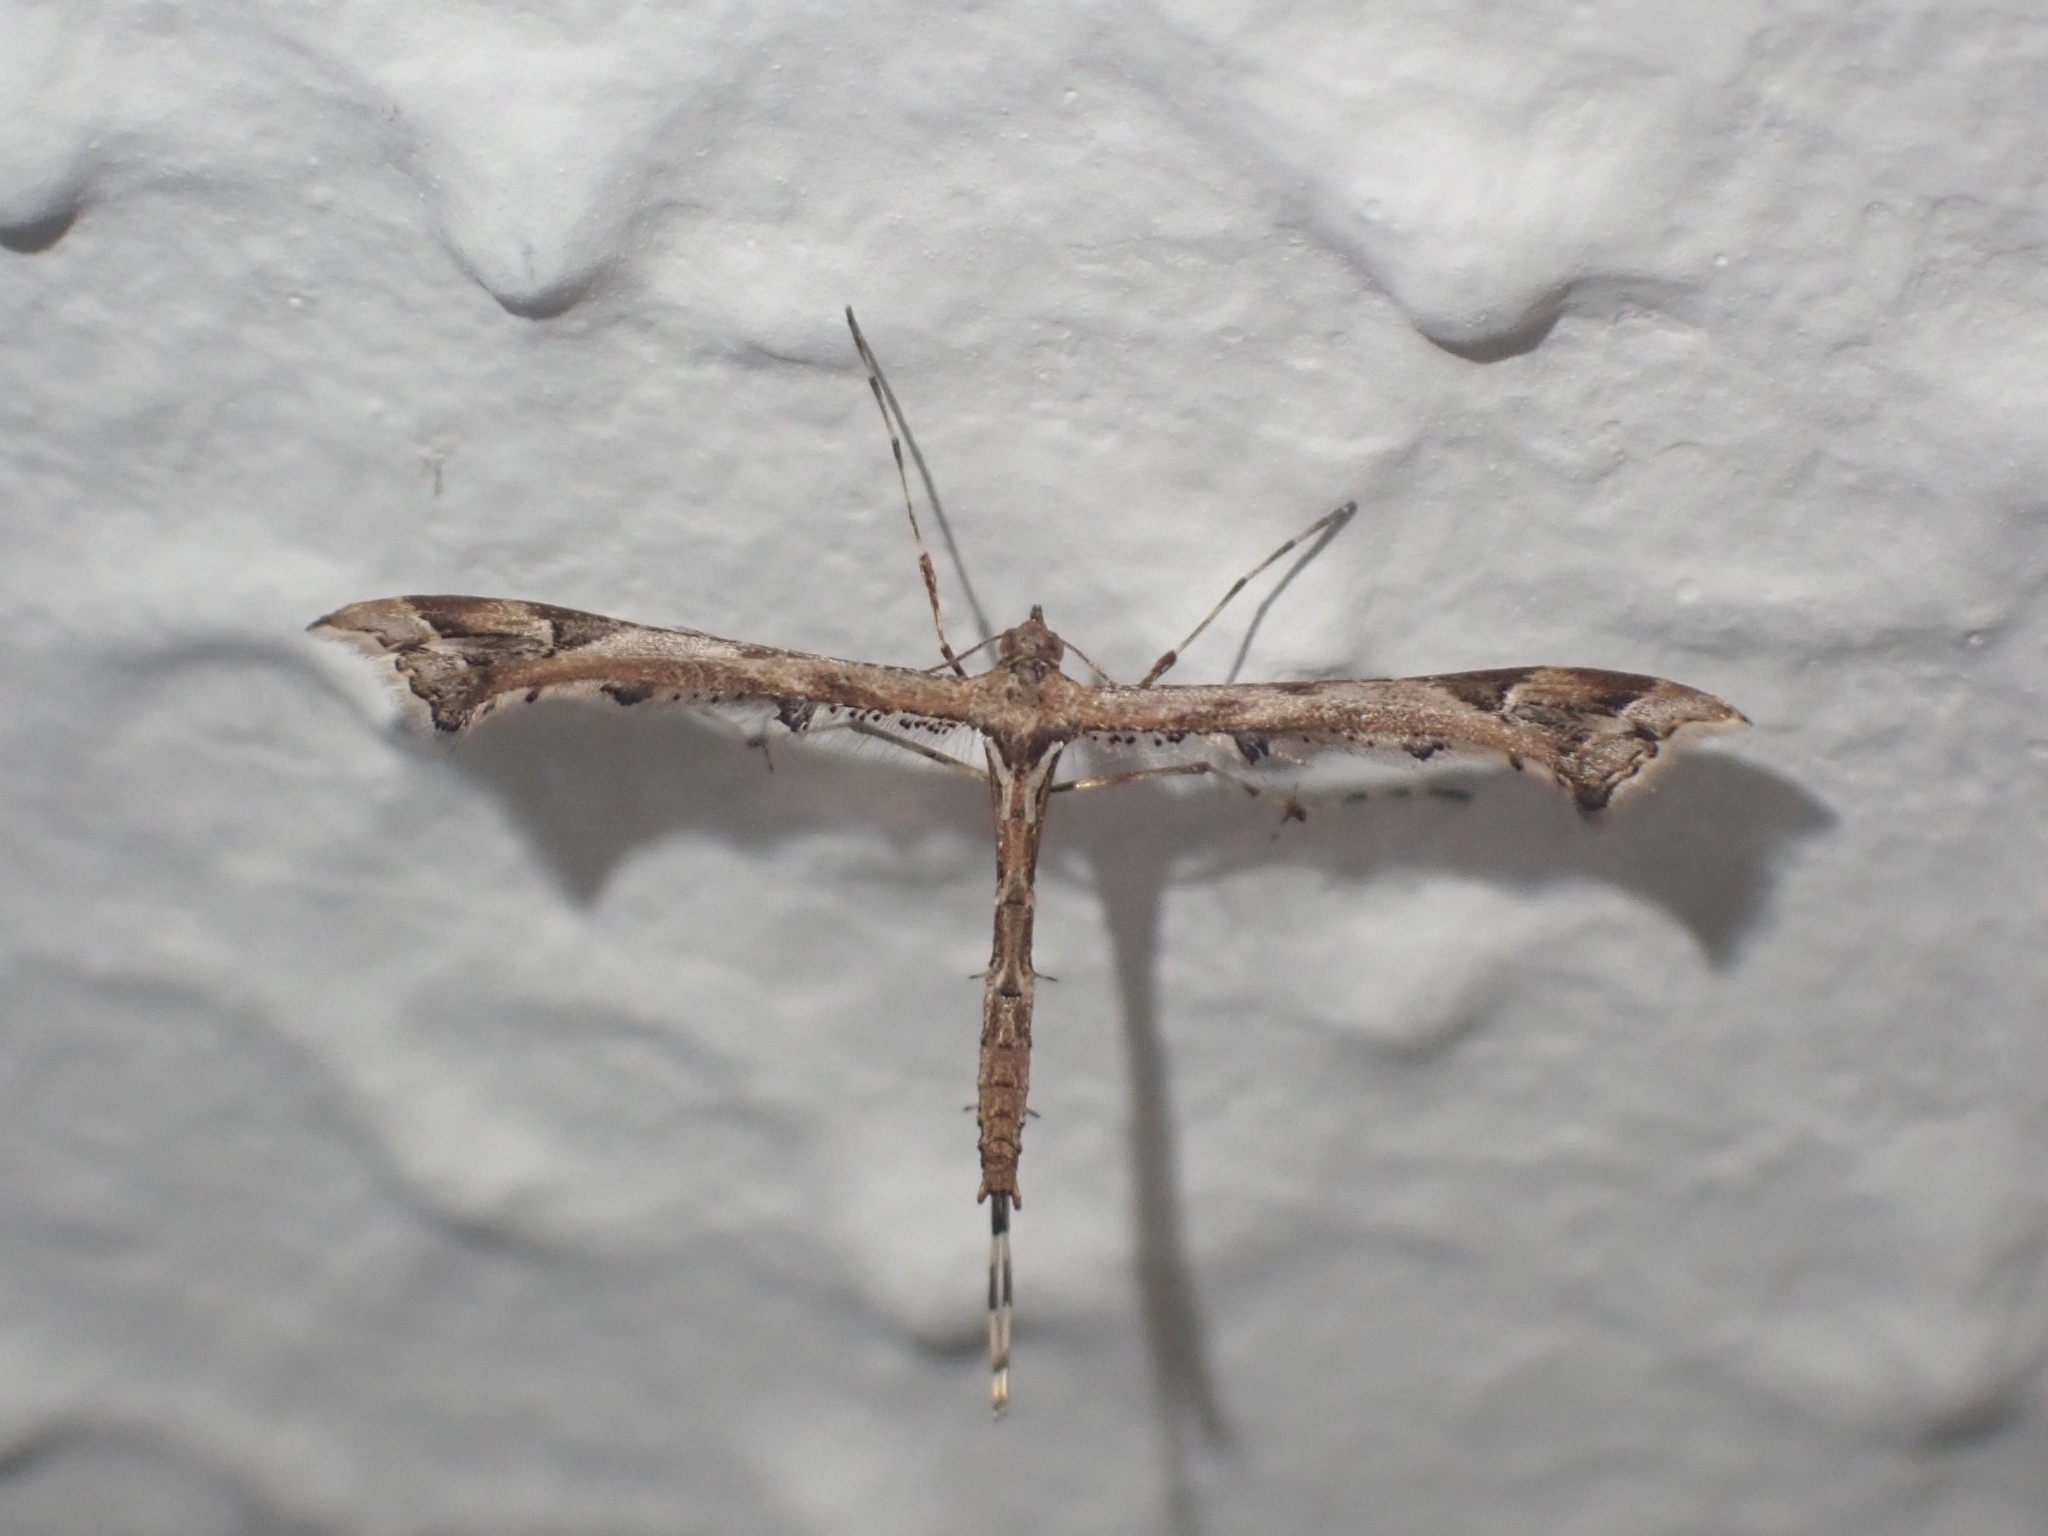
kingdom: Animalia
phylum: Arthropoda
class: Insecta
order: Lepidoptera
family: Pterophoridae
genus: Amblyptilia
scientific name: Amblyptilia acanthadactyla
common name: Beautiful plume
